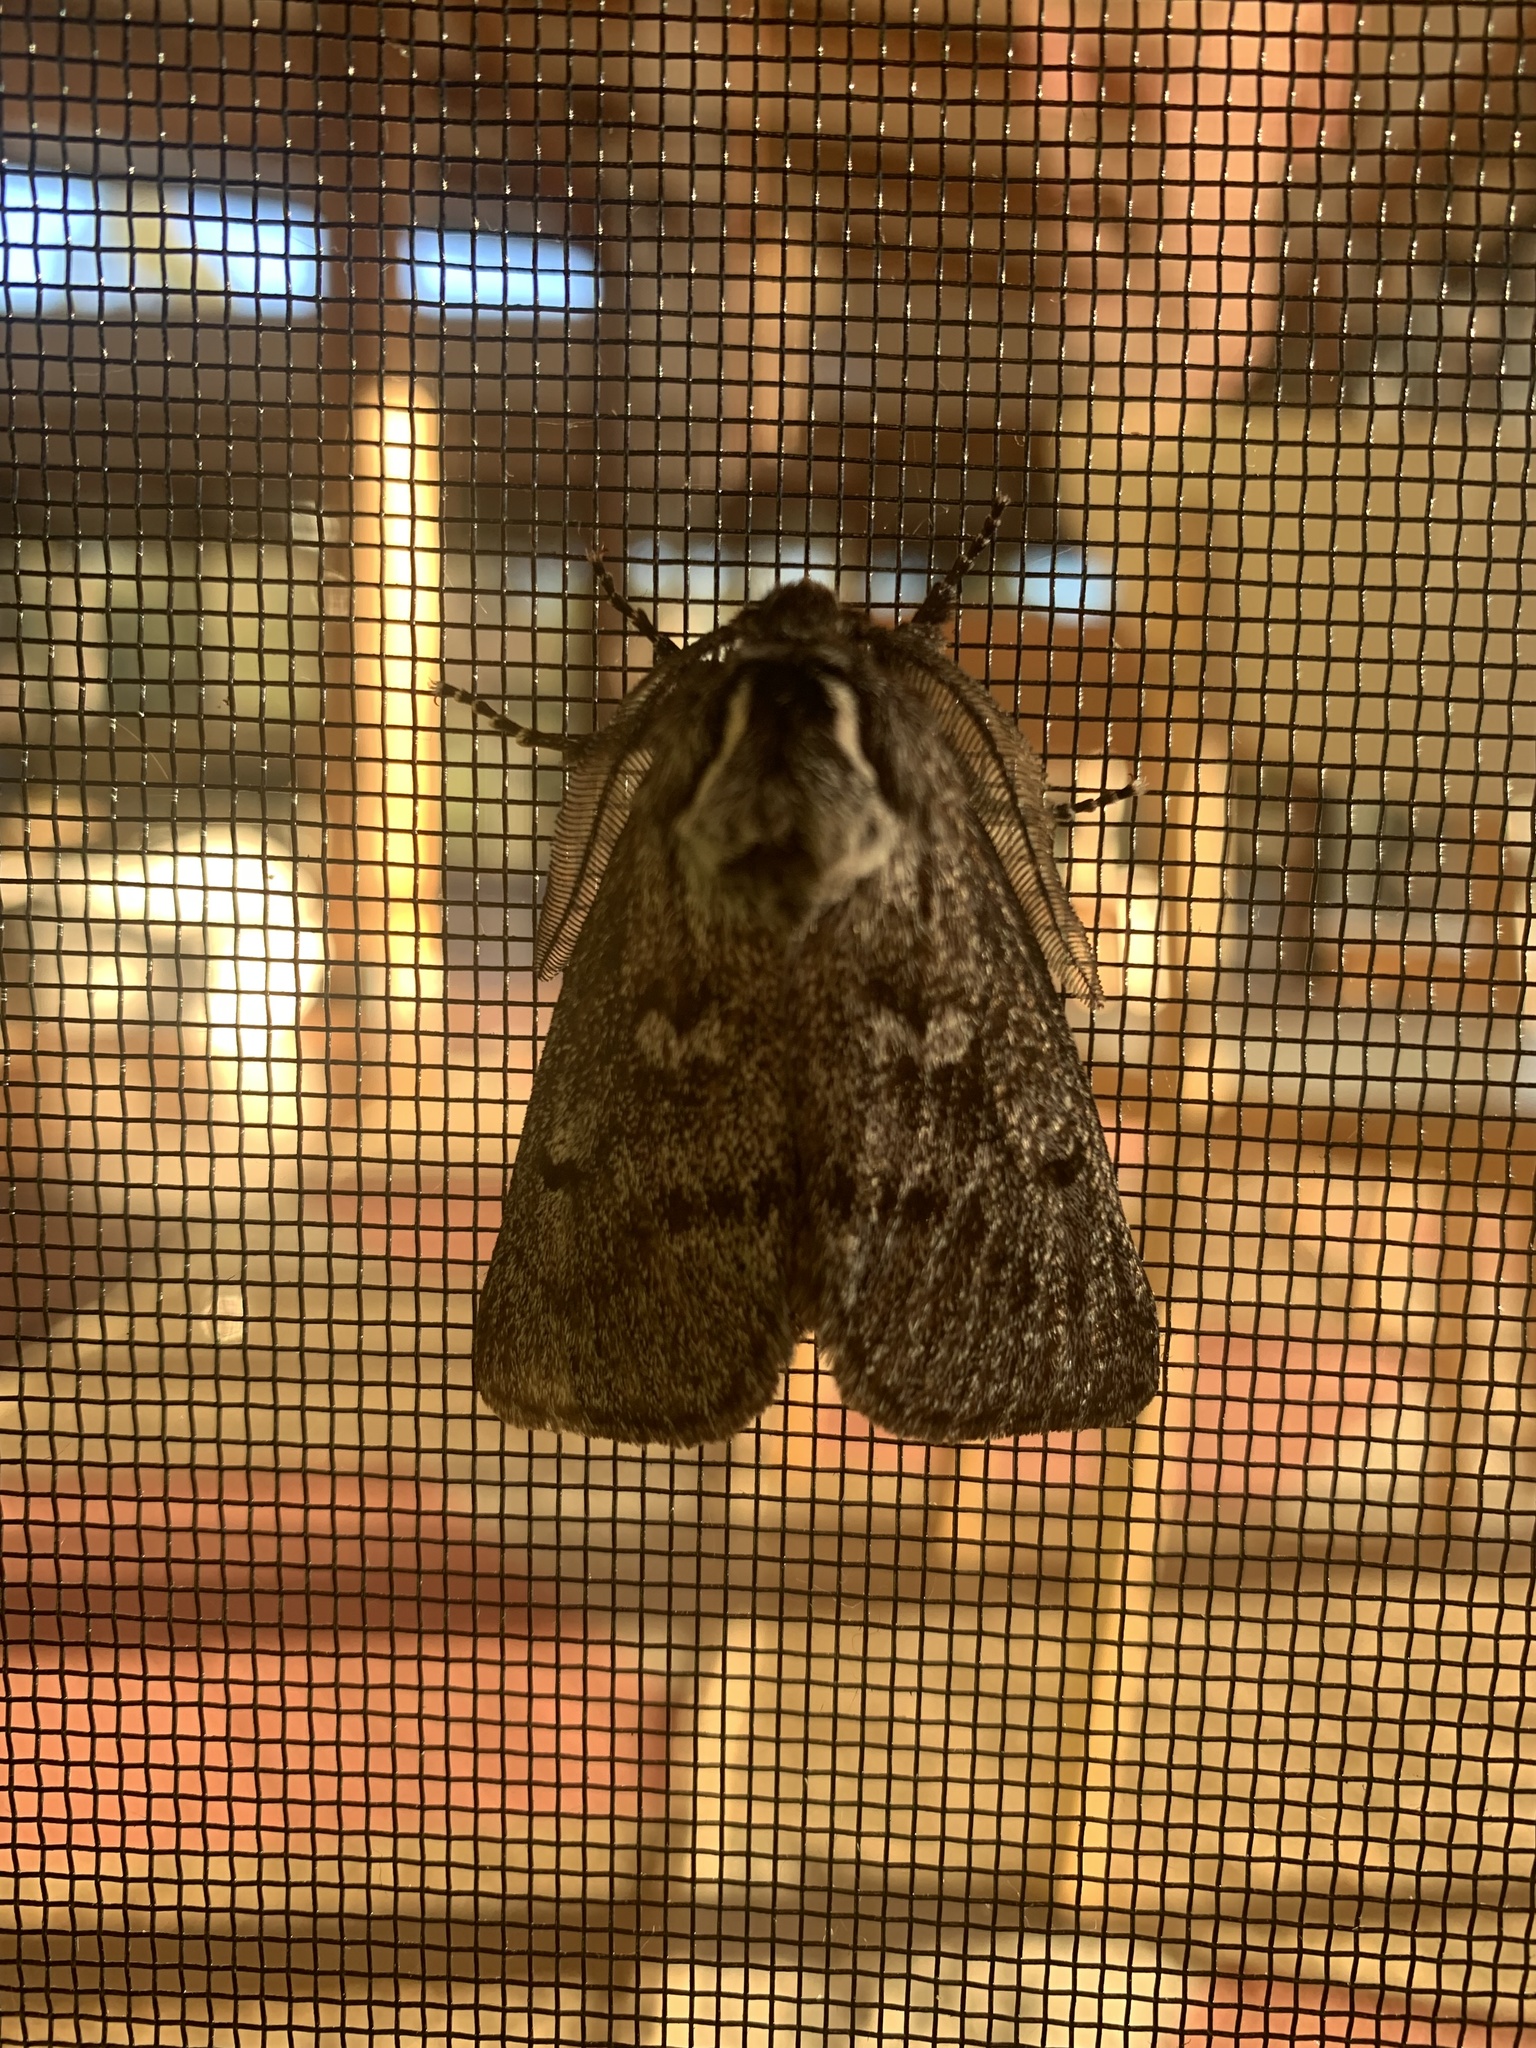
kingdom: Animalia
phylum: Arthropoda
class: Insecta
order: Lepidoptera
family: Cossidae
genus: Ptilomacra
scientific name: Ptilomacra senex
